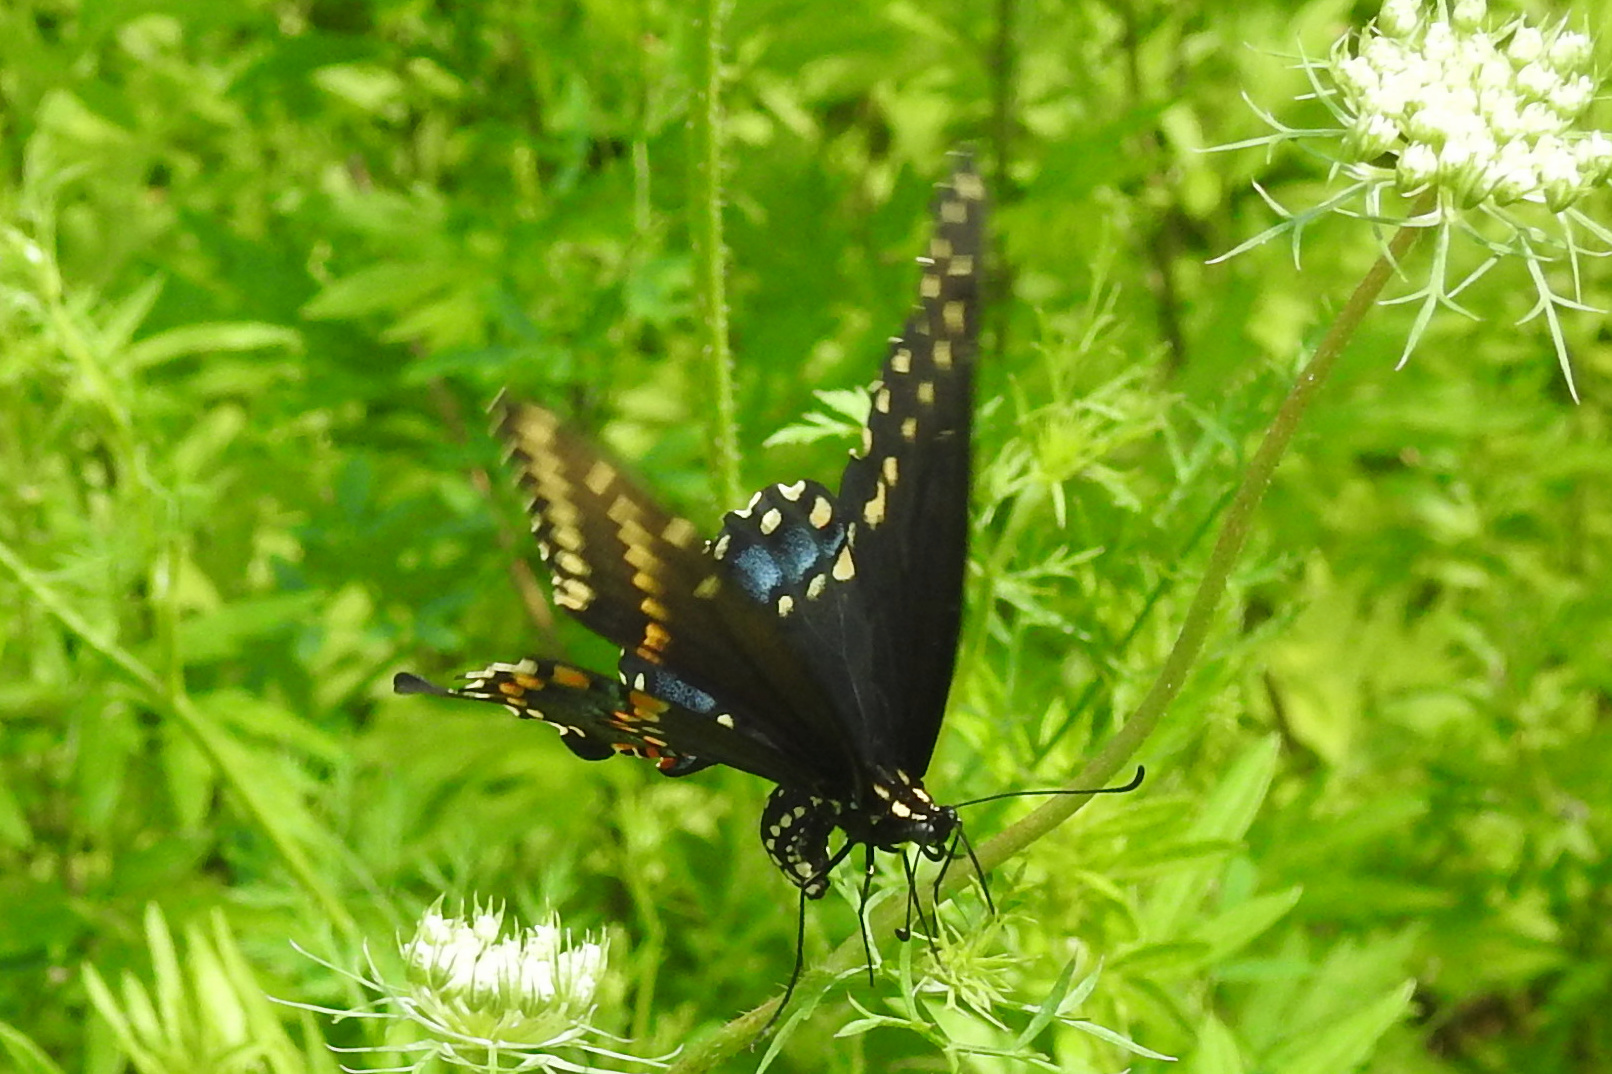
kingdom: Animalia
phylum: Arthropoda
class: Insecta
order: Lepidoptera
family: Papilionidae
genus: Papilio
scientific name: Papilio polyxenes
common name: Black swallowtail
